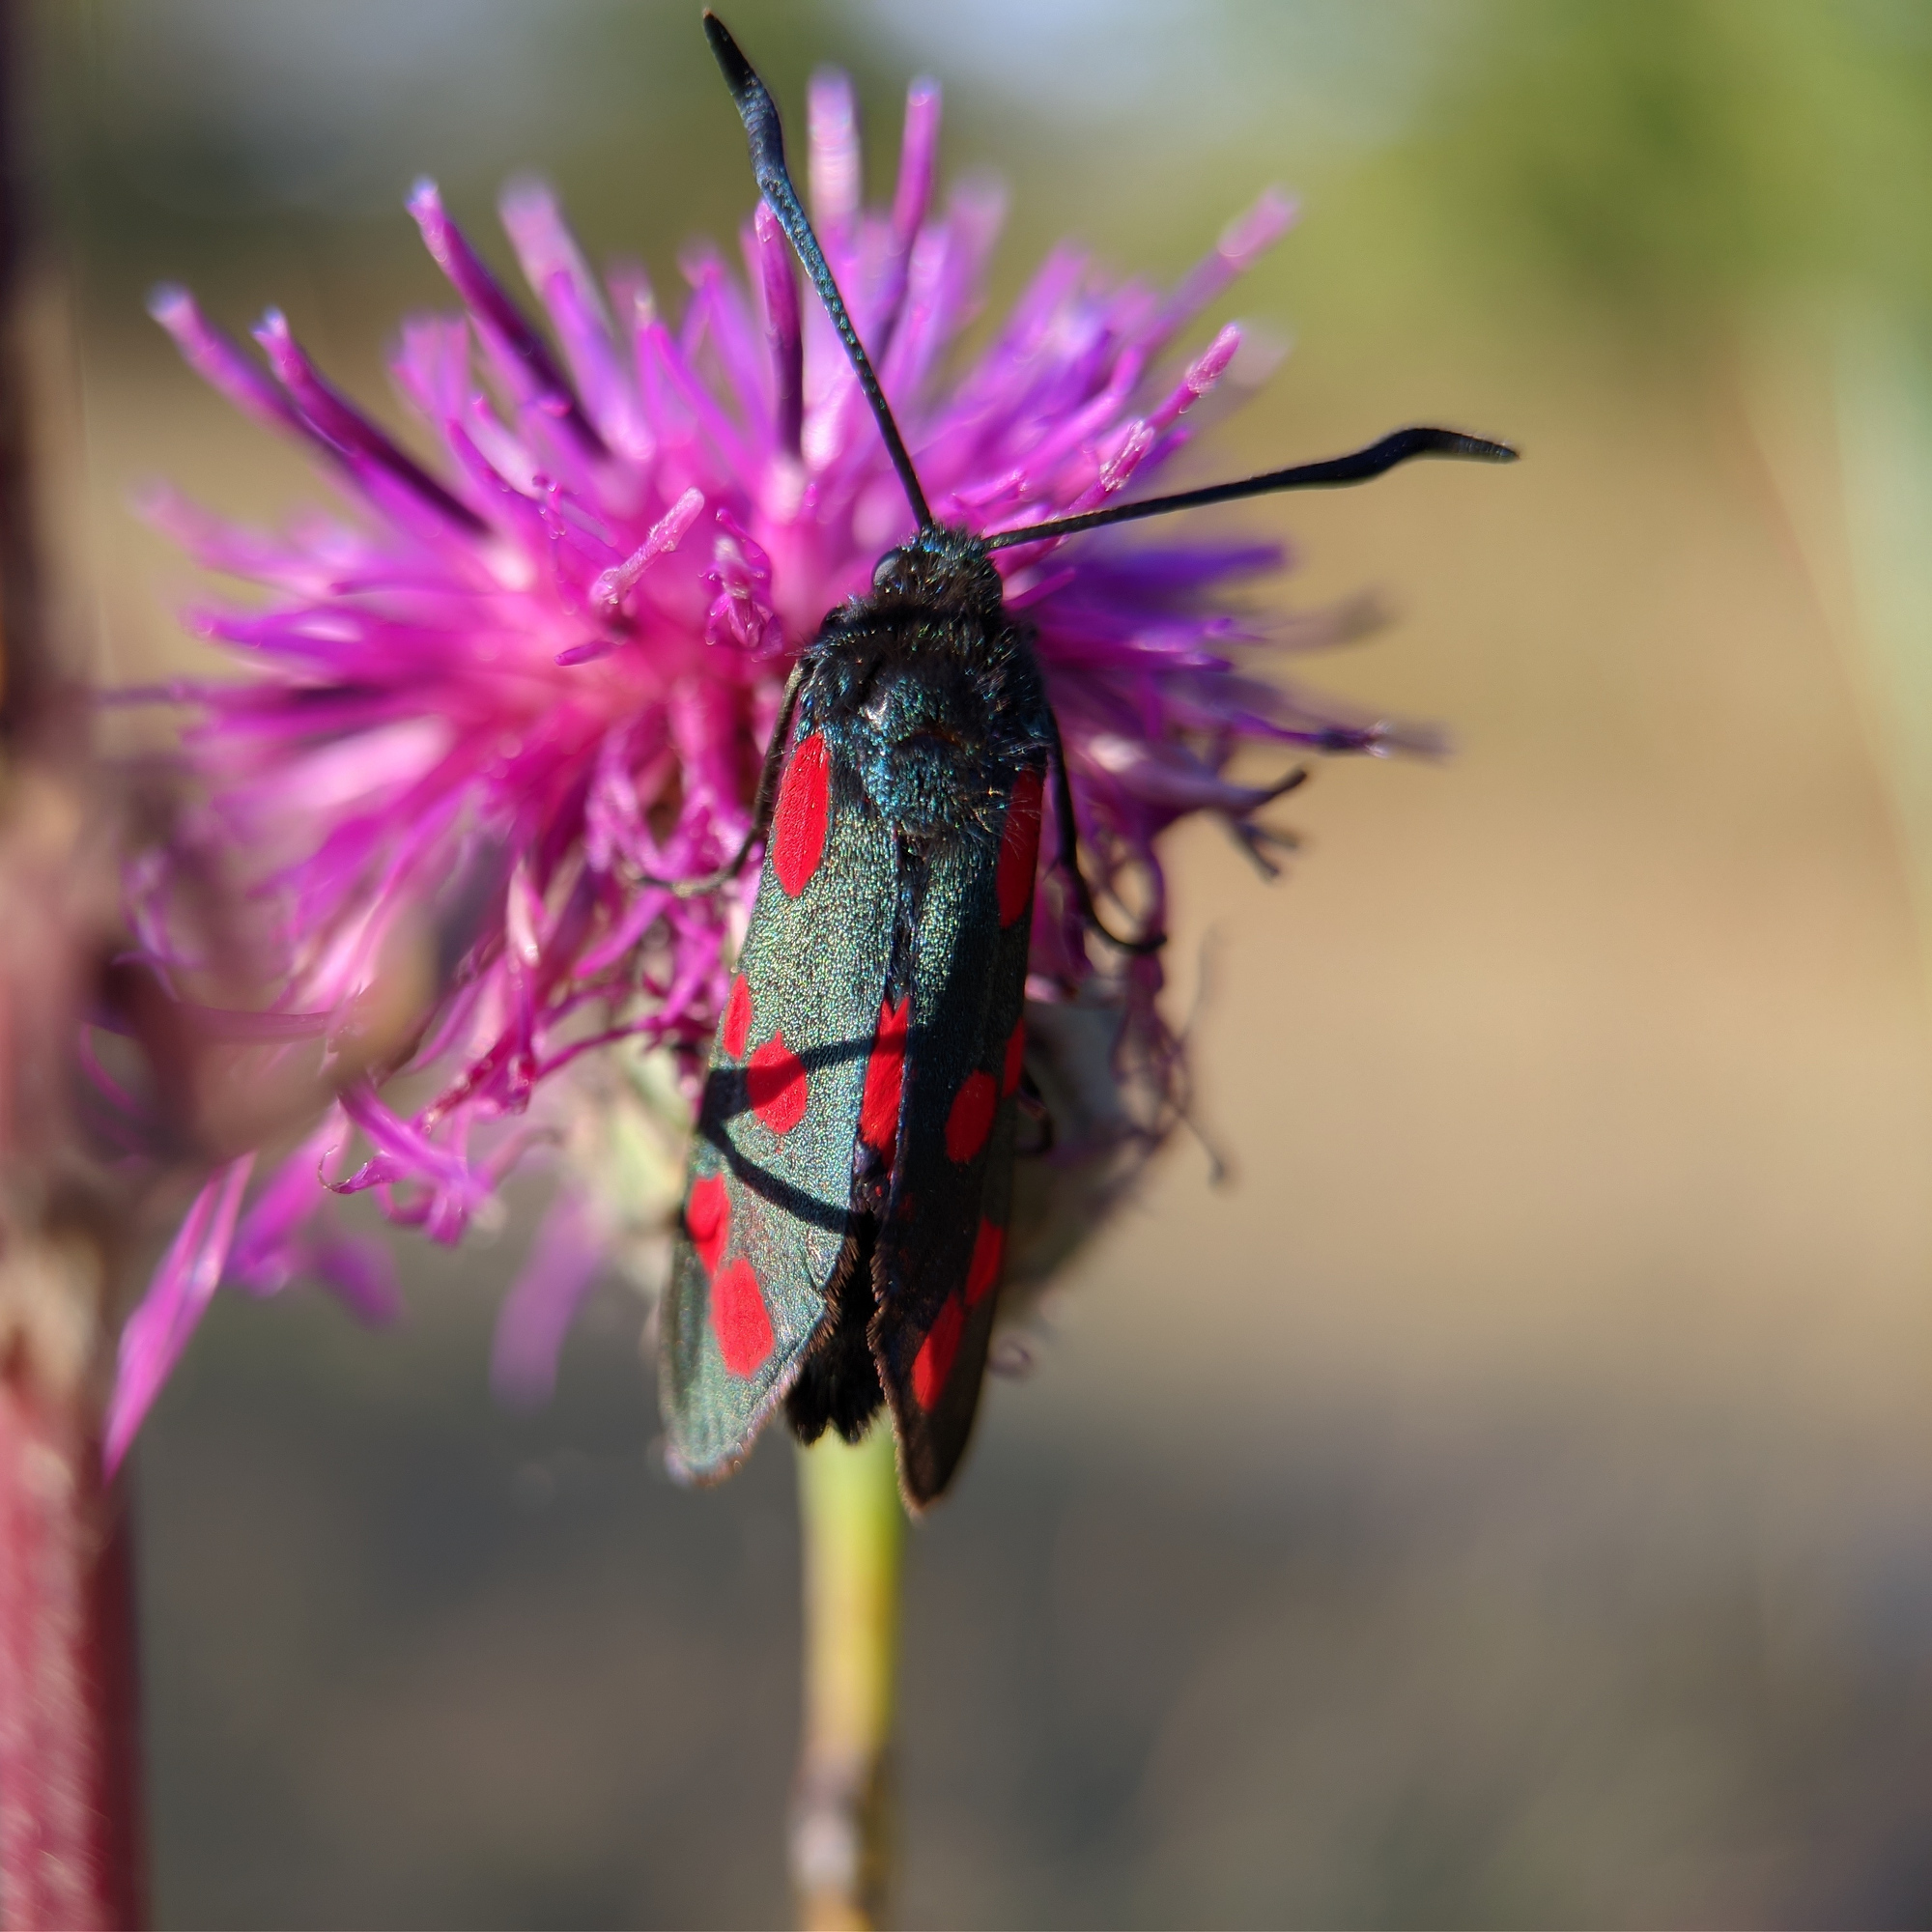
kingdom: Animalia
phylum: Arthropoda
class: Insecta
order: Lepidoptera
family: Zygaenidae
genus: Zygaena
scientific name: Zygaena filipendulae
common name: Six-spot burnet
